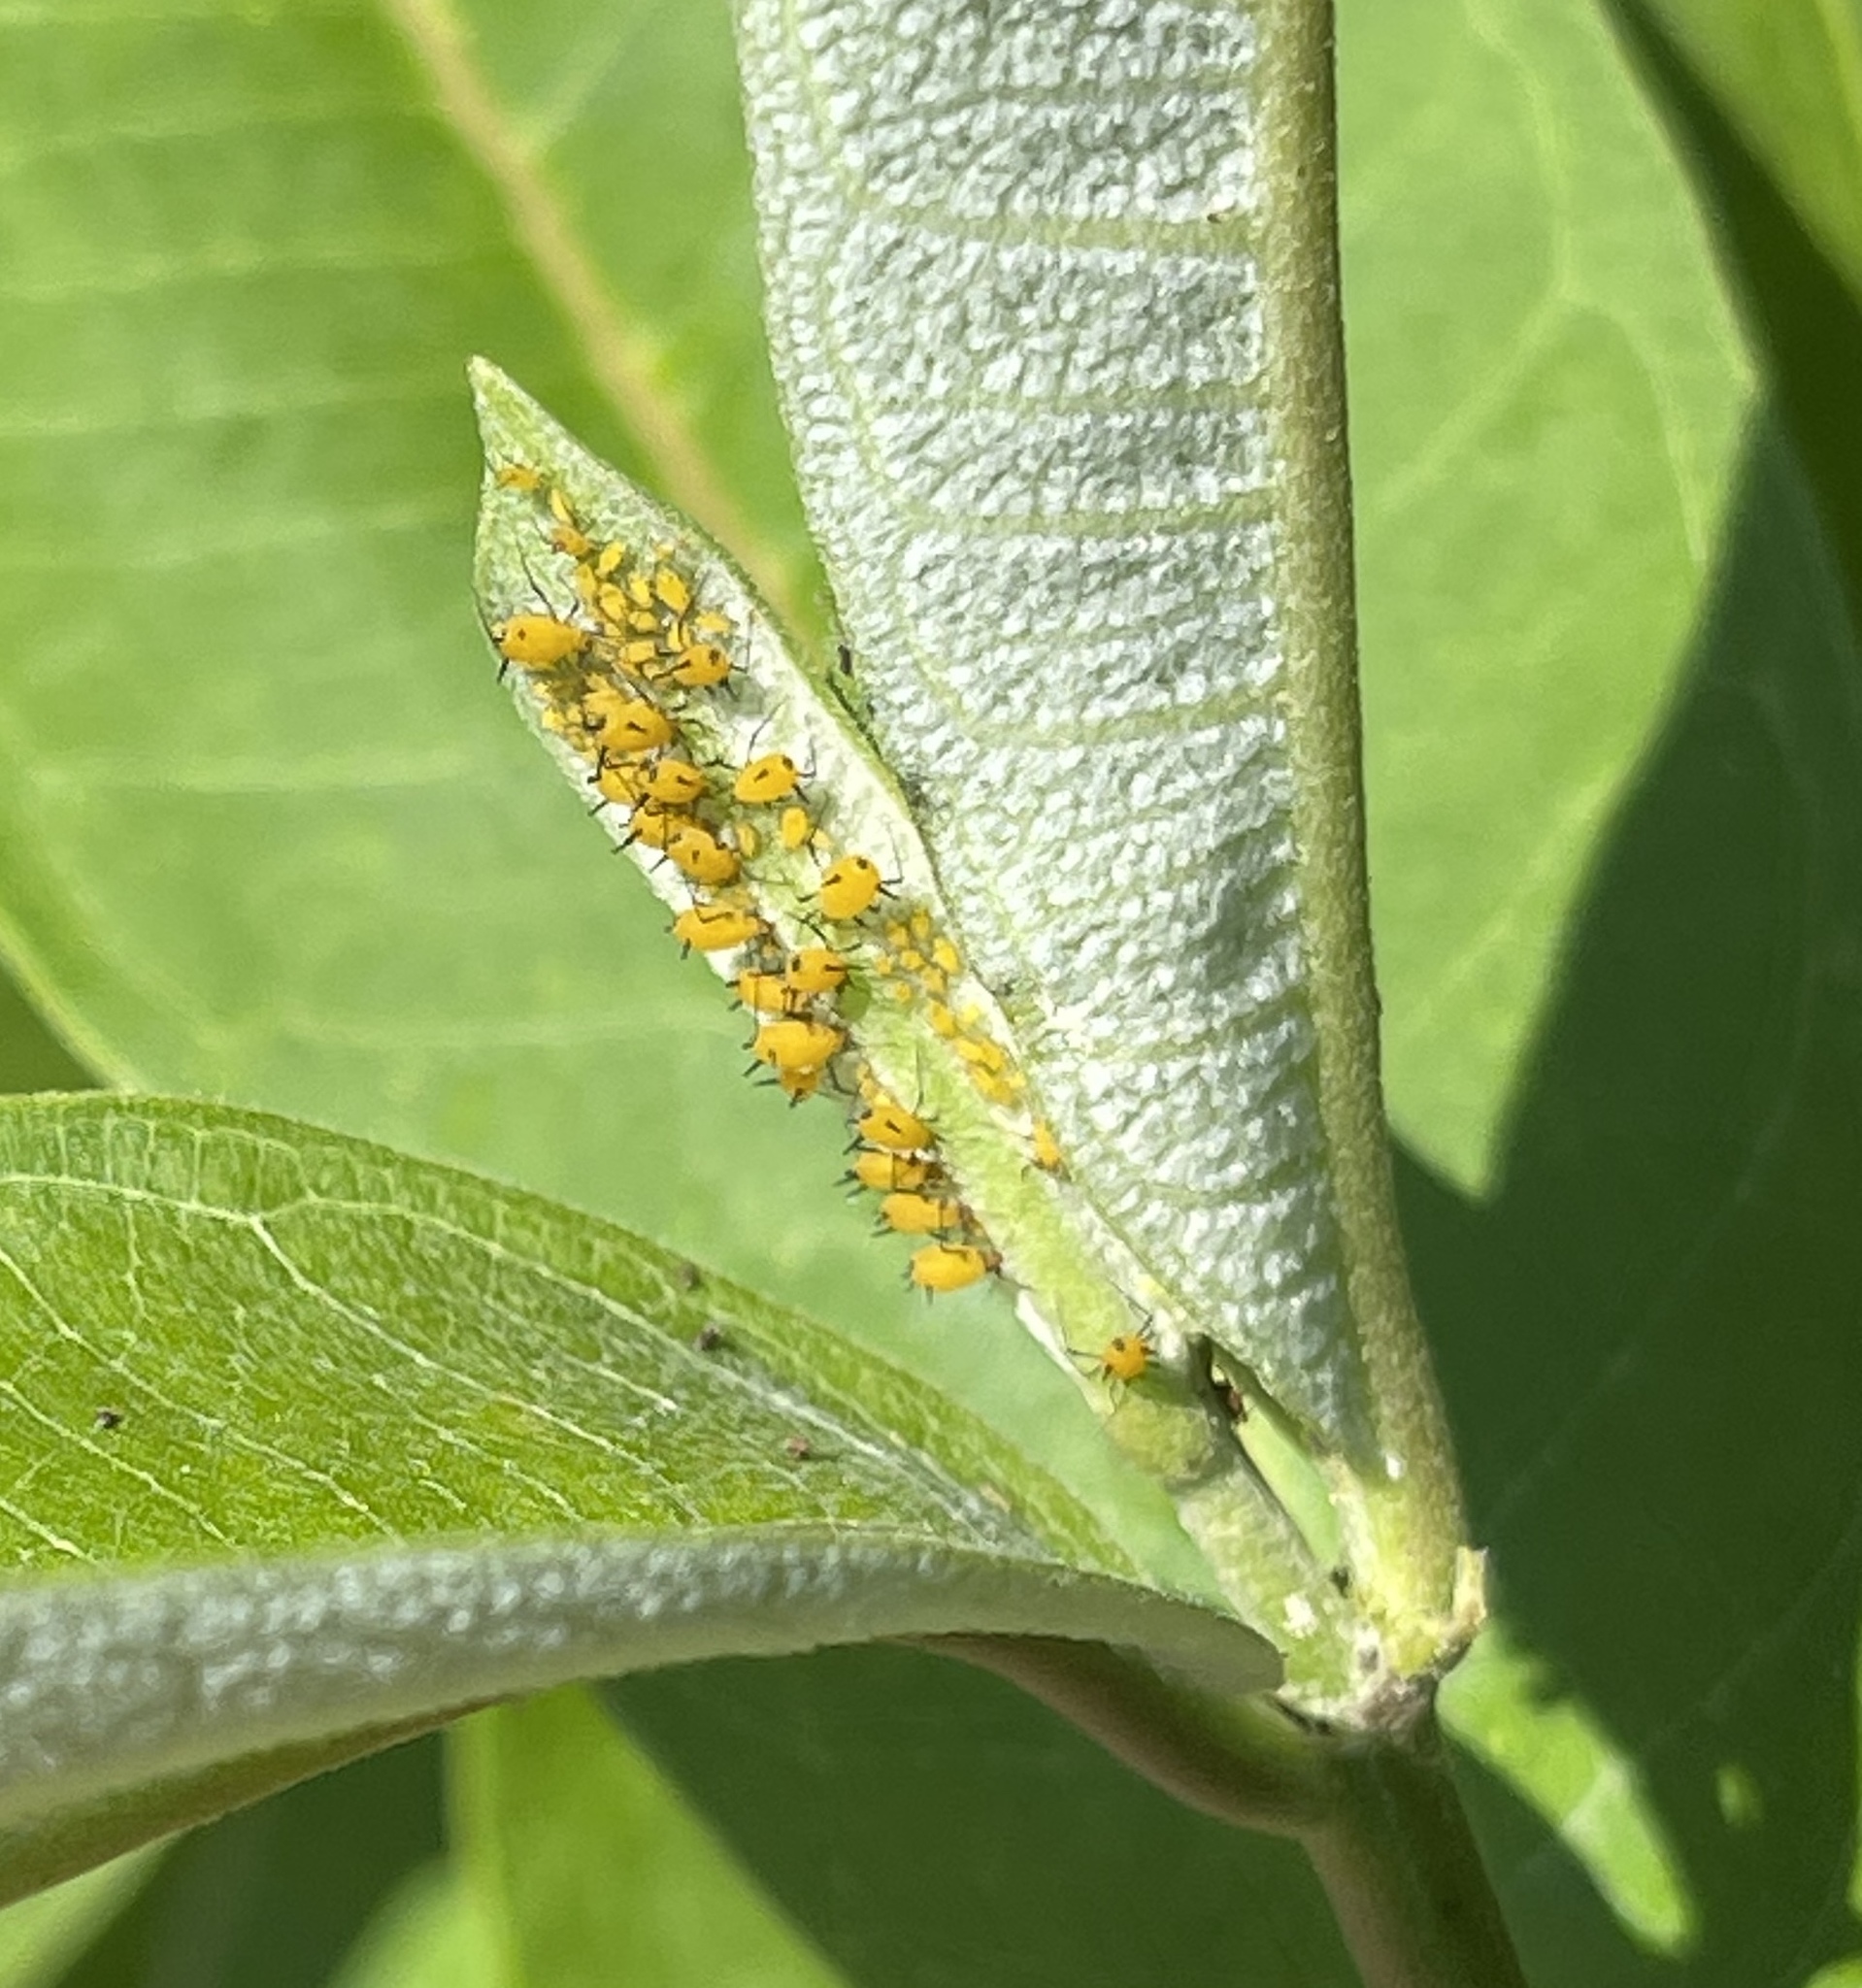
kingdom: Animalia
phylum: Arthropoda
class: Insecta
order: Hemiptera
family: Aphididae
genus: Aphis
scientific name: Aphis nerii
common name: Oleander aphid
